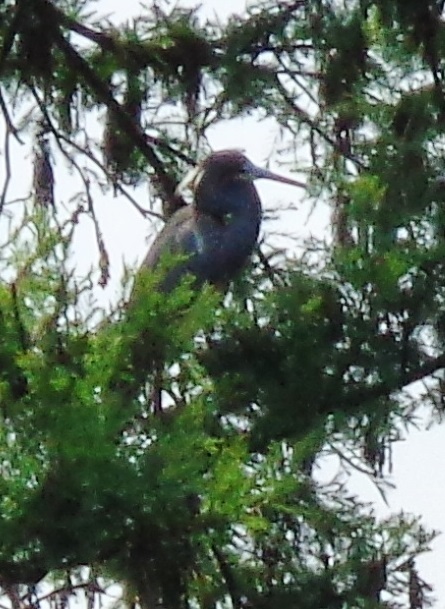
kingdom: Animalia
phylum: Chordata
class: Aves
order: Pelecaniformes
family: Ardeidae
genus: Egretta
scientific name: Egretta tricolor
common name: Tricolored heron
